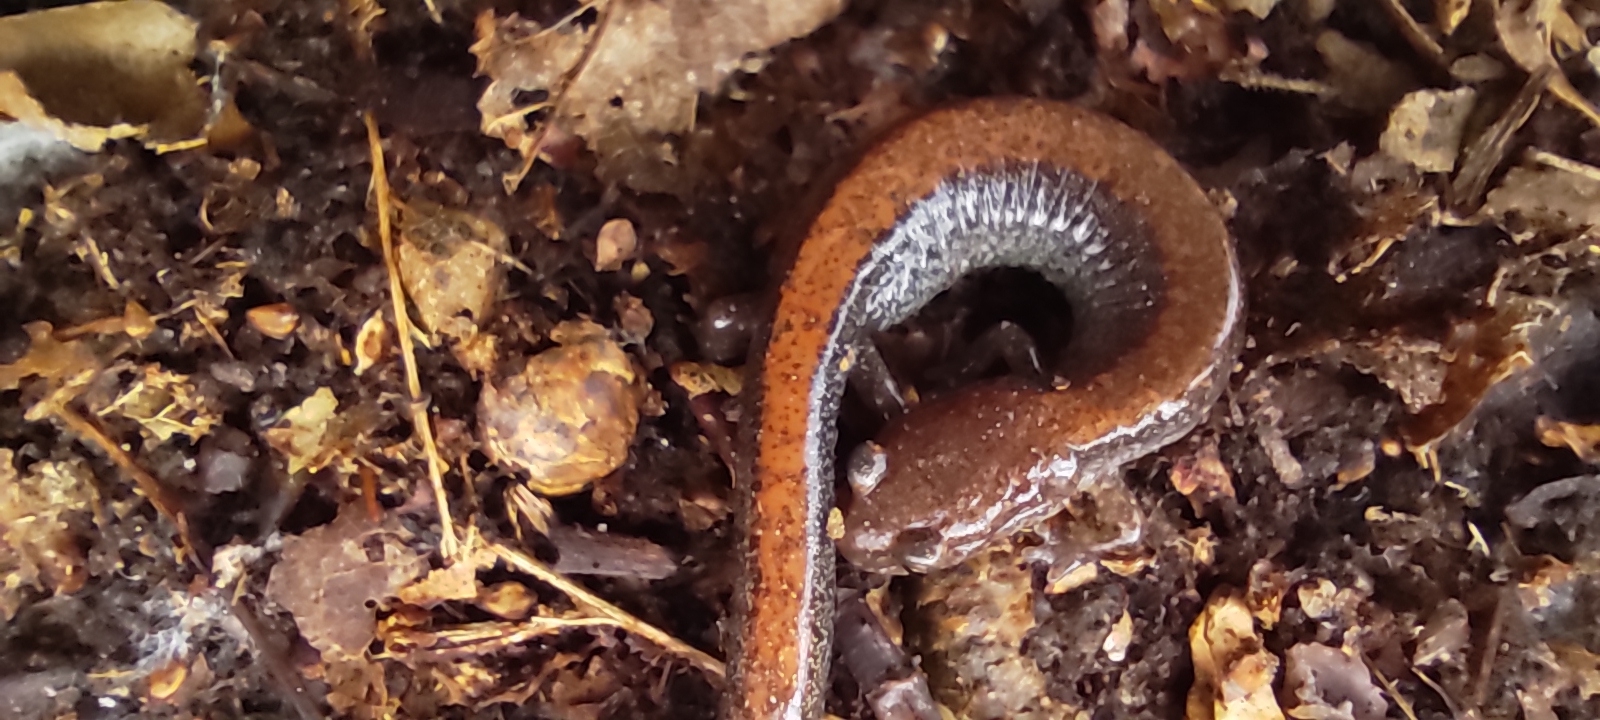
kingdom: Animalia
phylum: Chordata
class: Amphibia
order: Caudata
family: Plethodontidae
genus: Plethodon
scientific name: Plethodon cinereus
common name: Redback salamander
